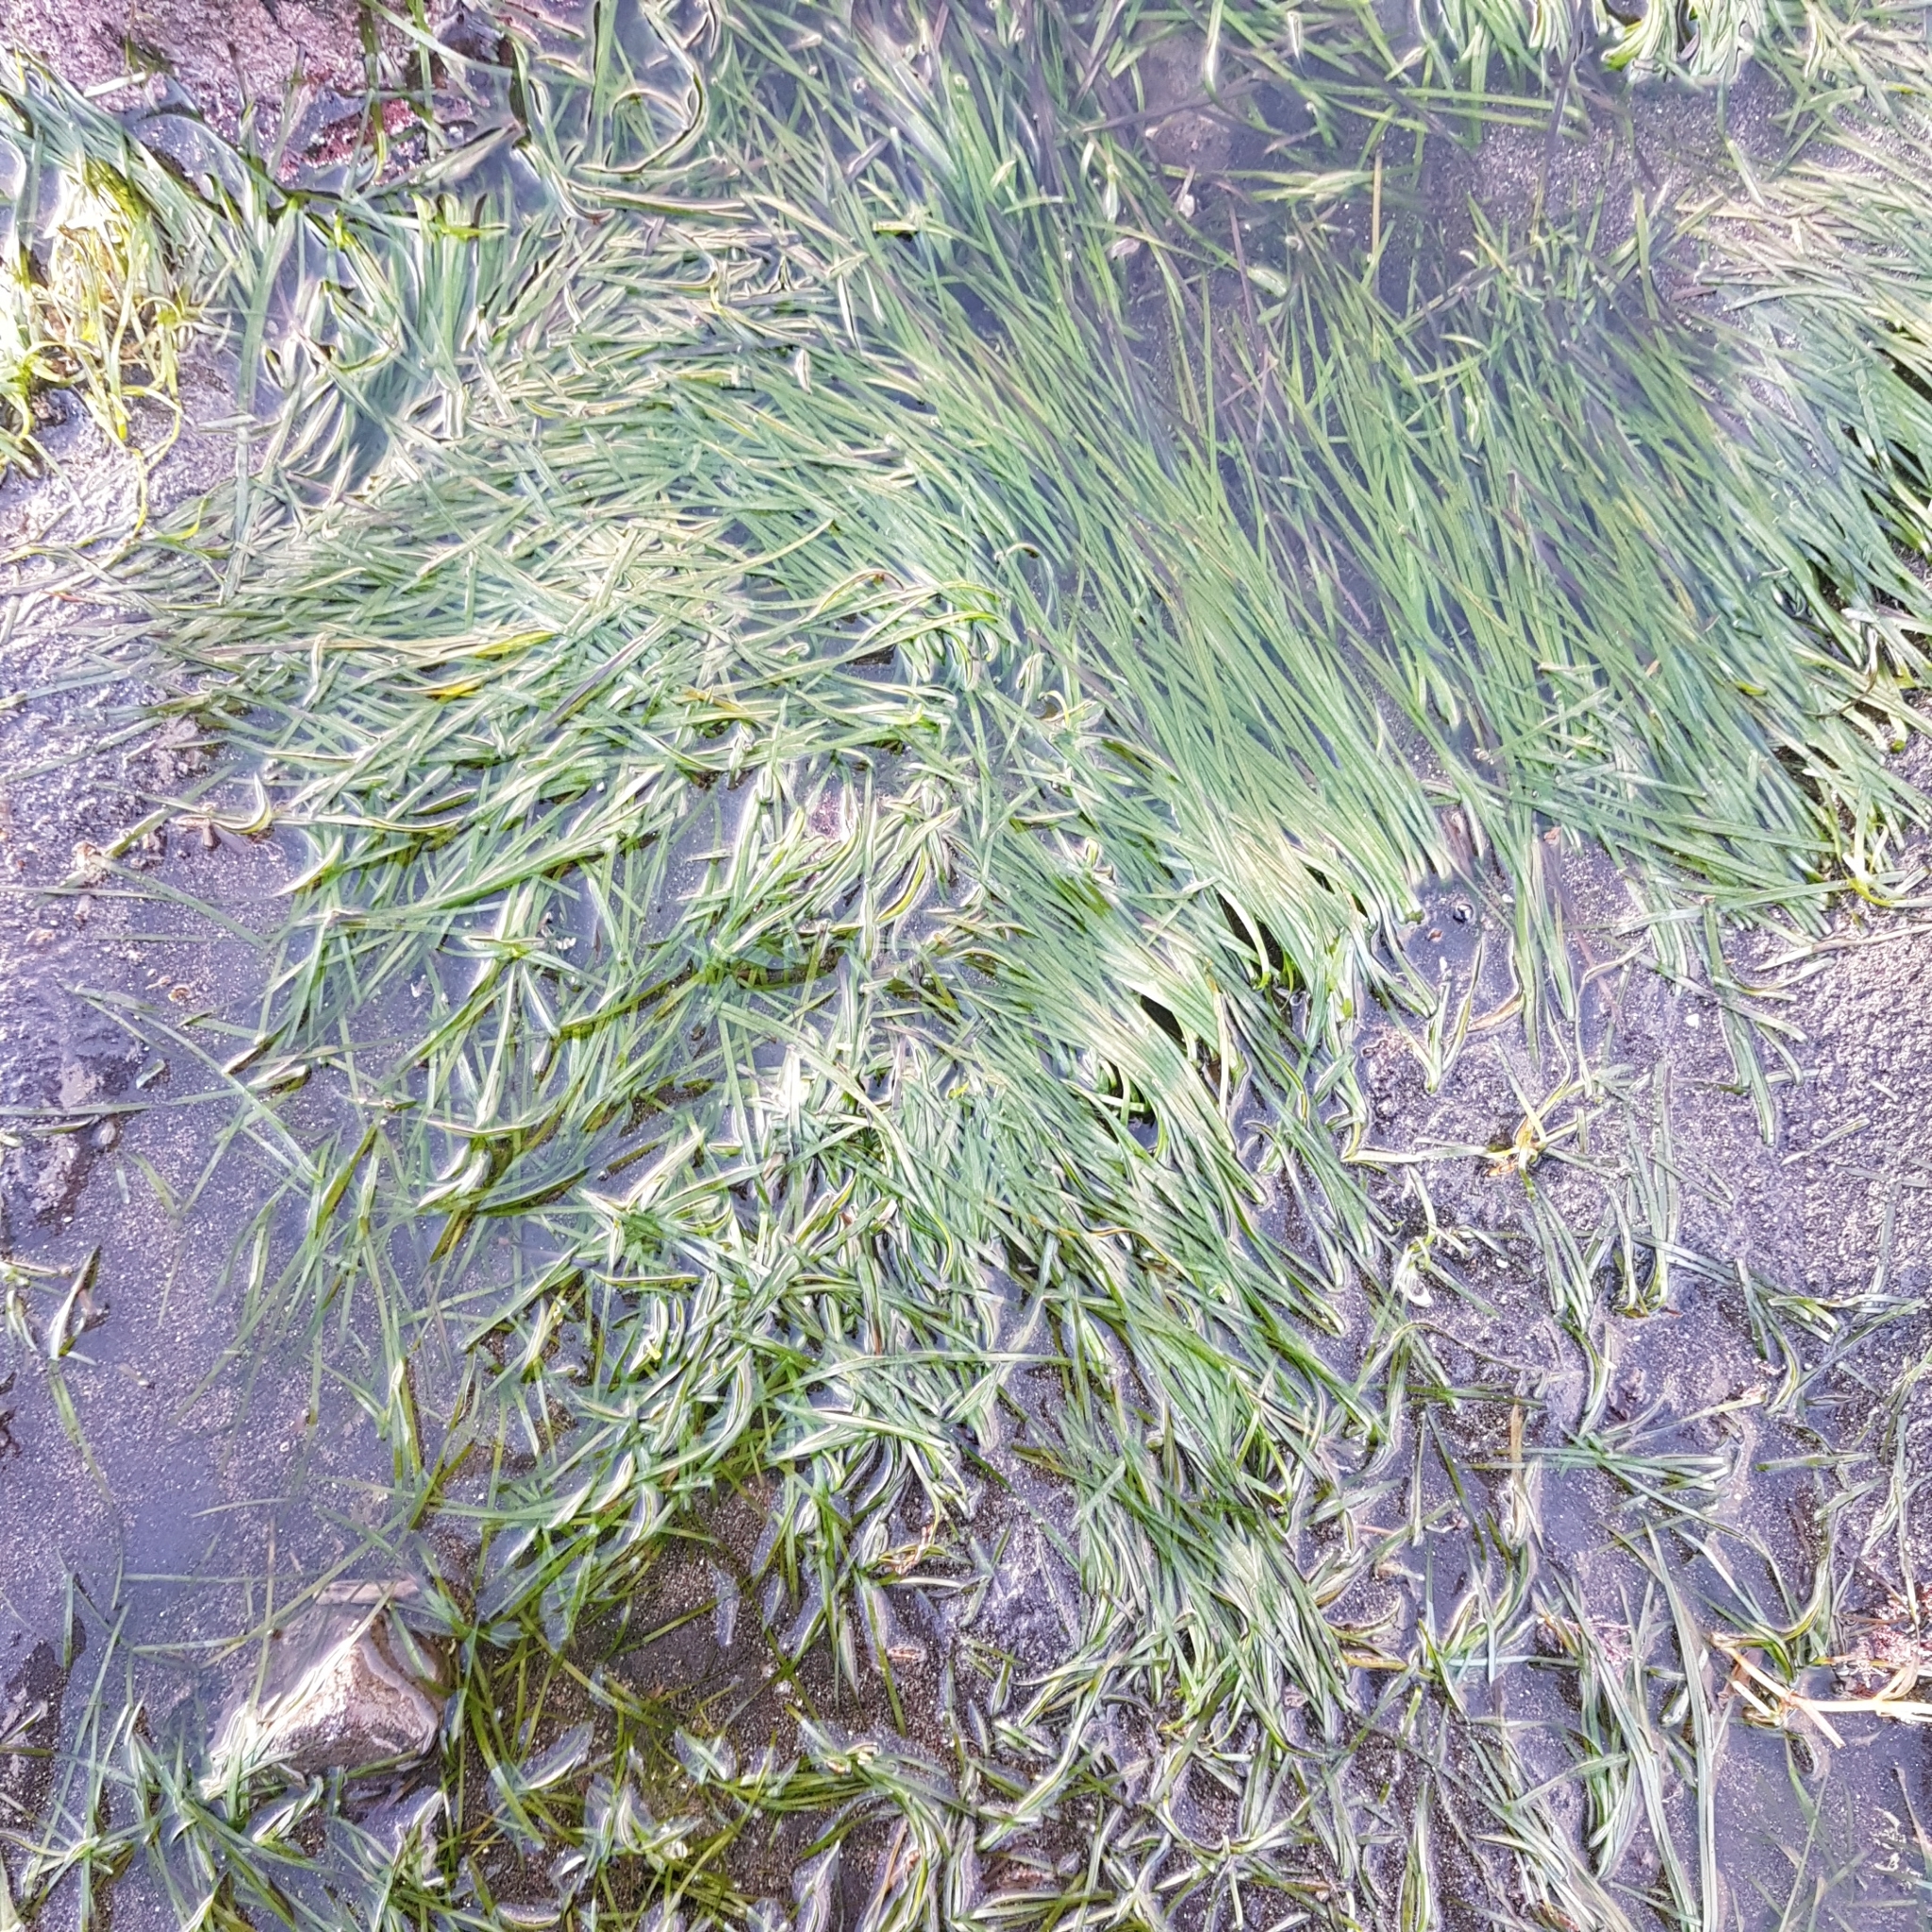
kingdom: Plantae
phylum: Tracheophyta
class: Liliopsida
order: Alismatales
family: Zosteraceae
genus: Zostera
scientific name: Zostera novazelandica
